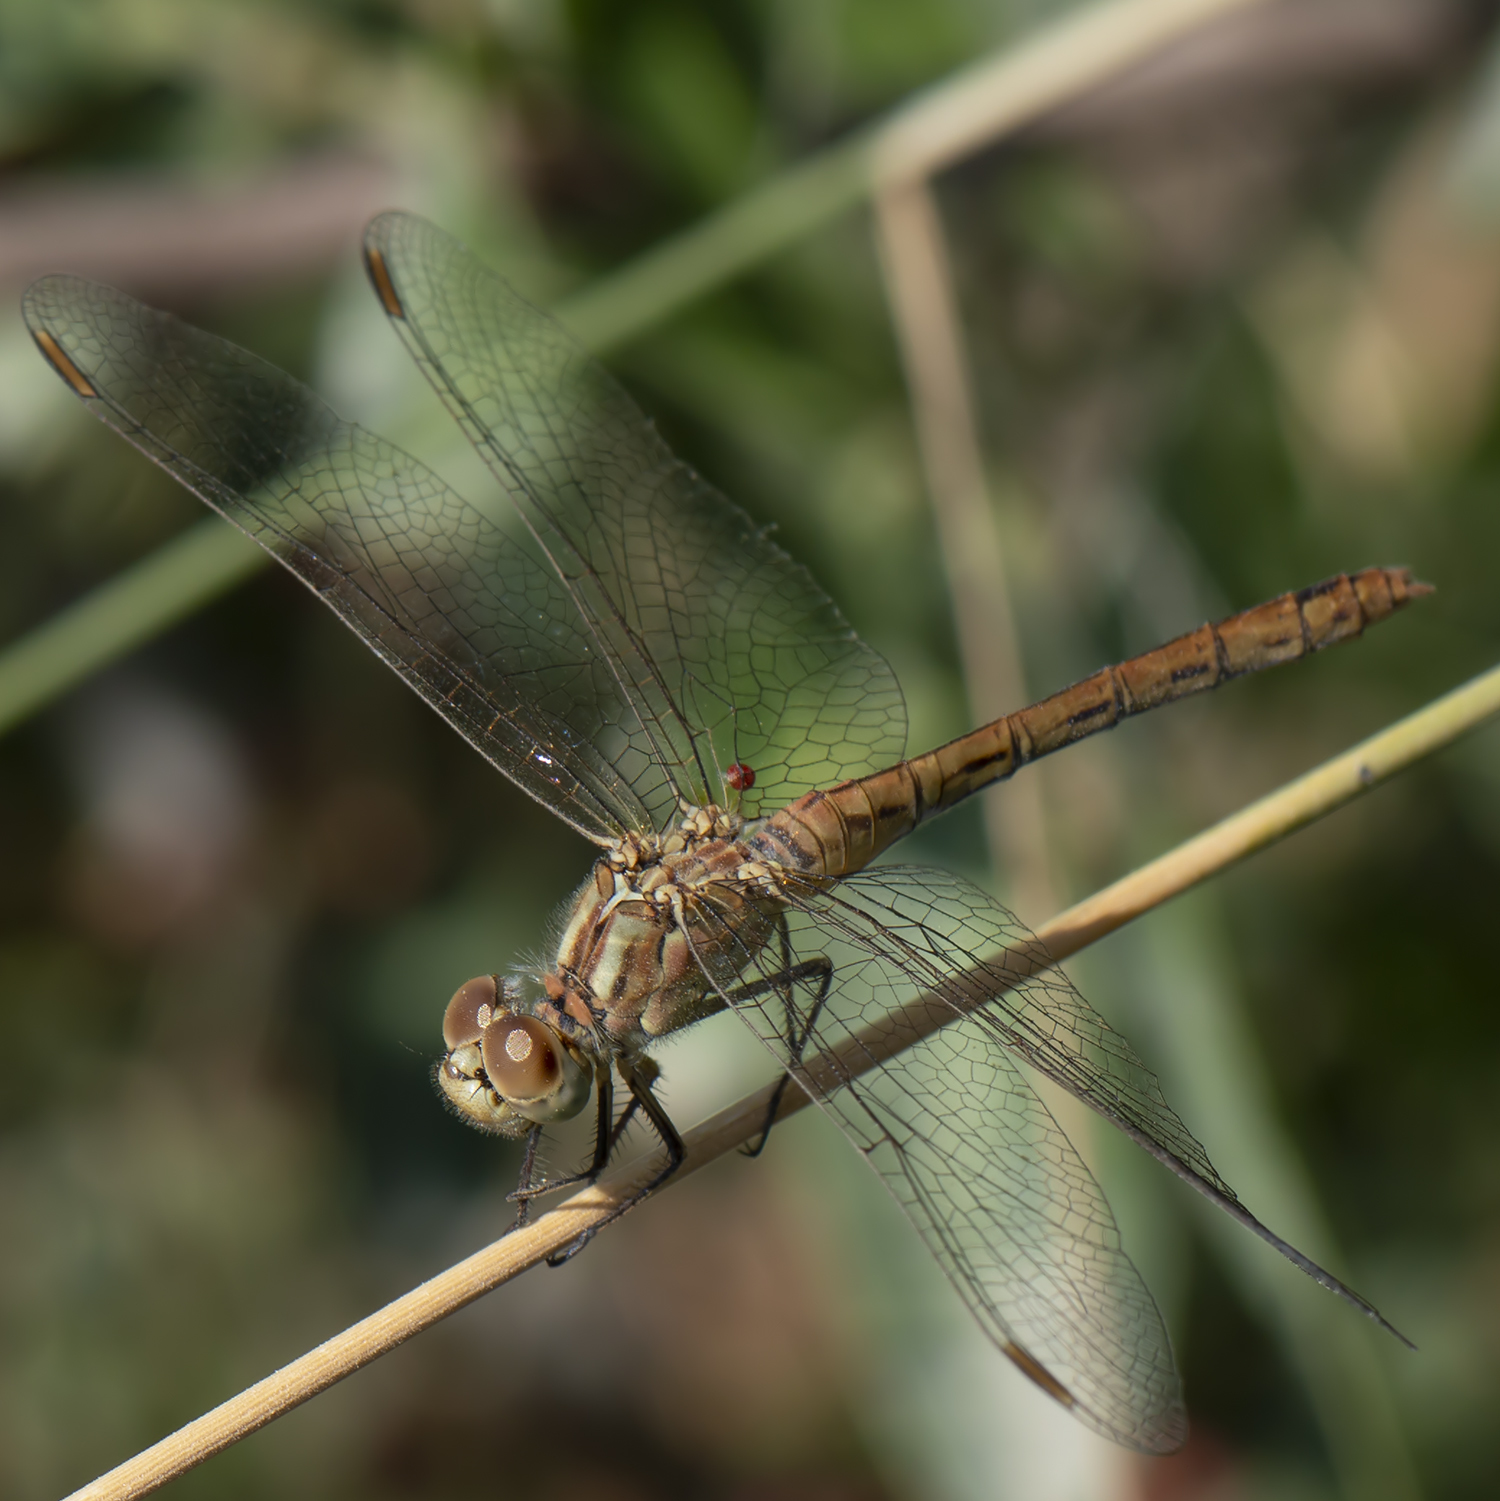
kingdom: Animalia
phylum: Arthropoda
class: Insecta
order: Odonata
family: Libellulidae
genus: Sympetrum
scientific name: Sympetrum meridionale
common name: Southern darter
